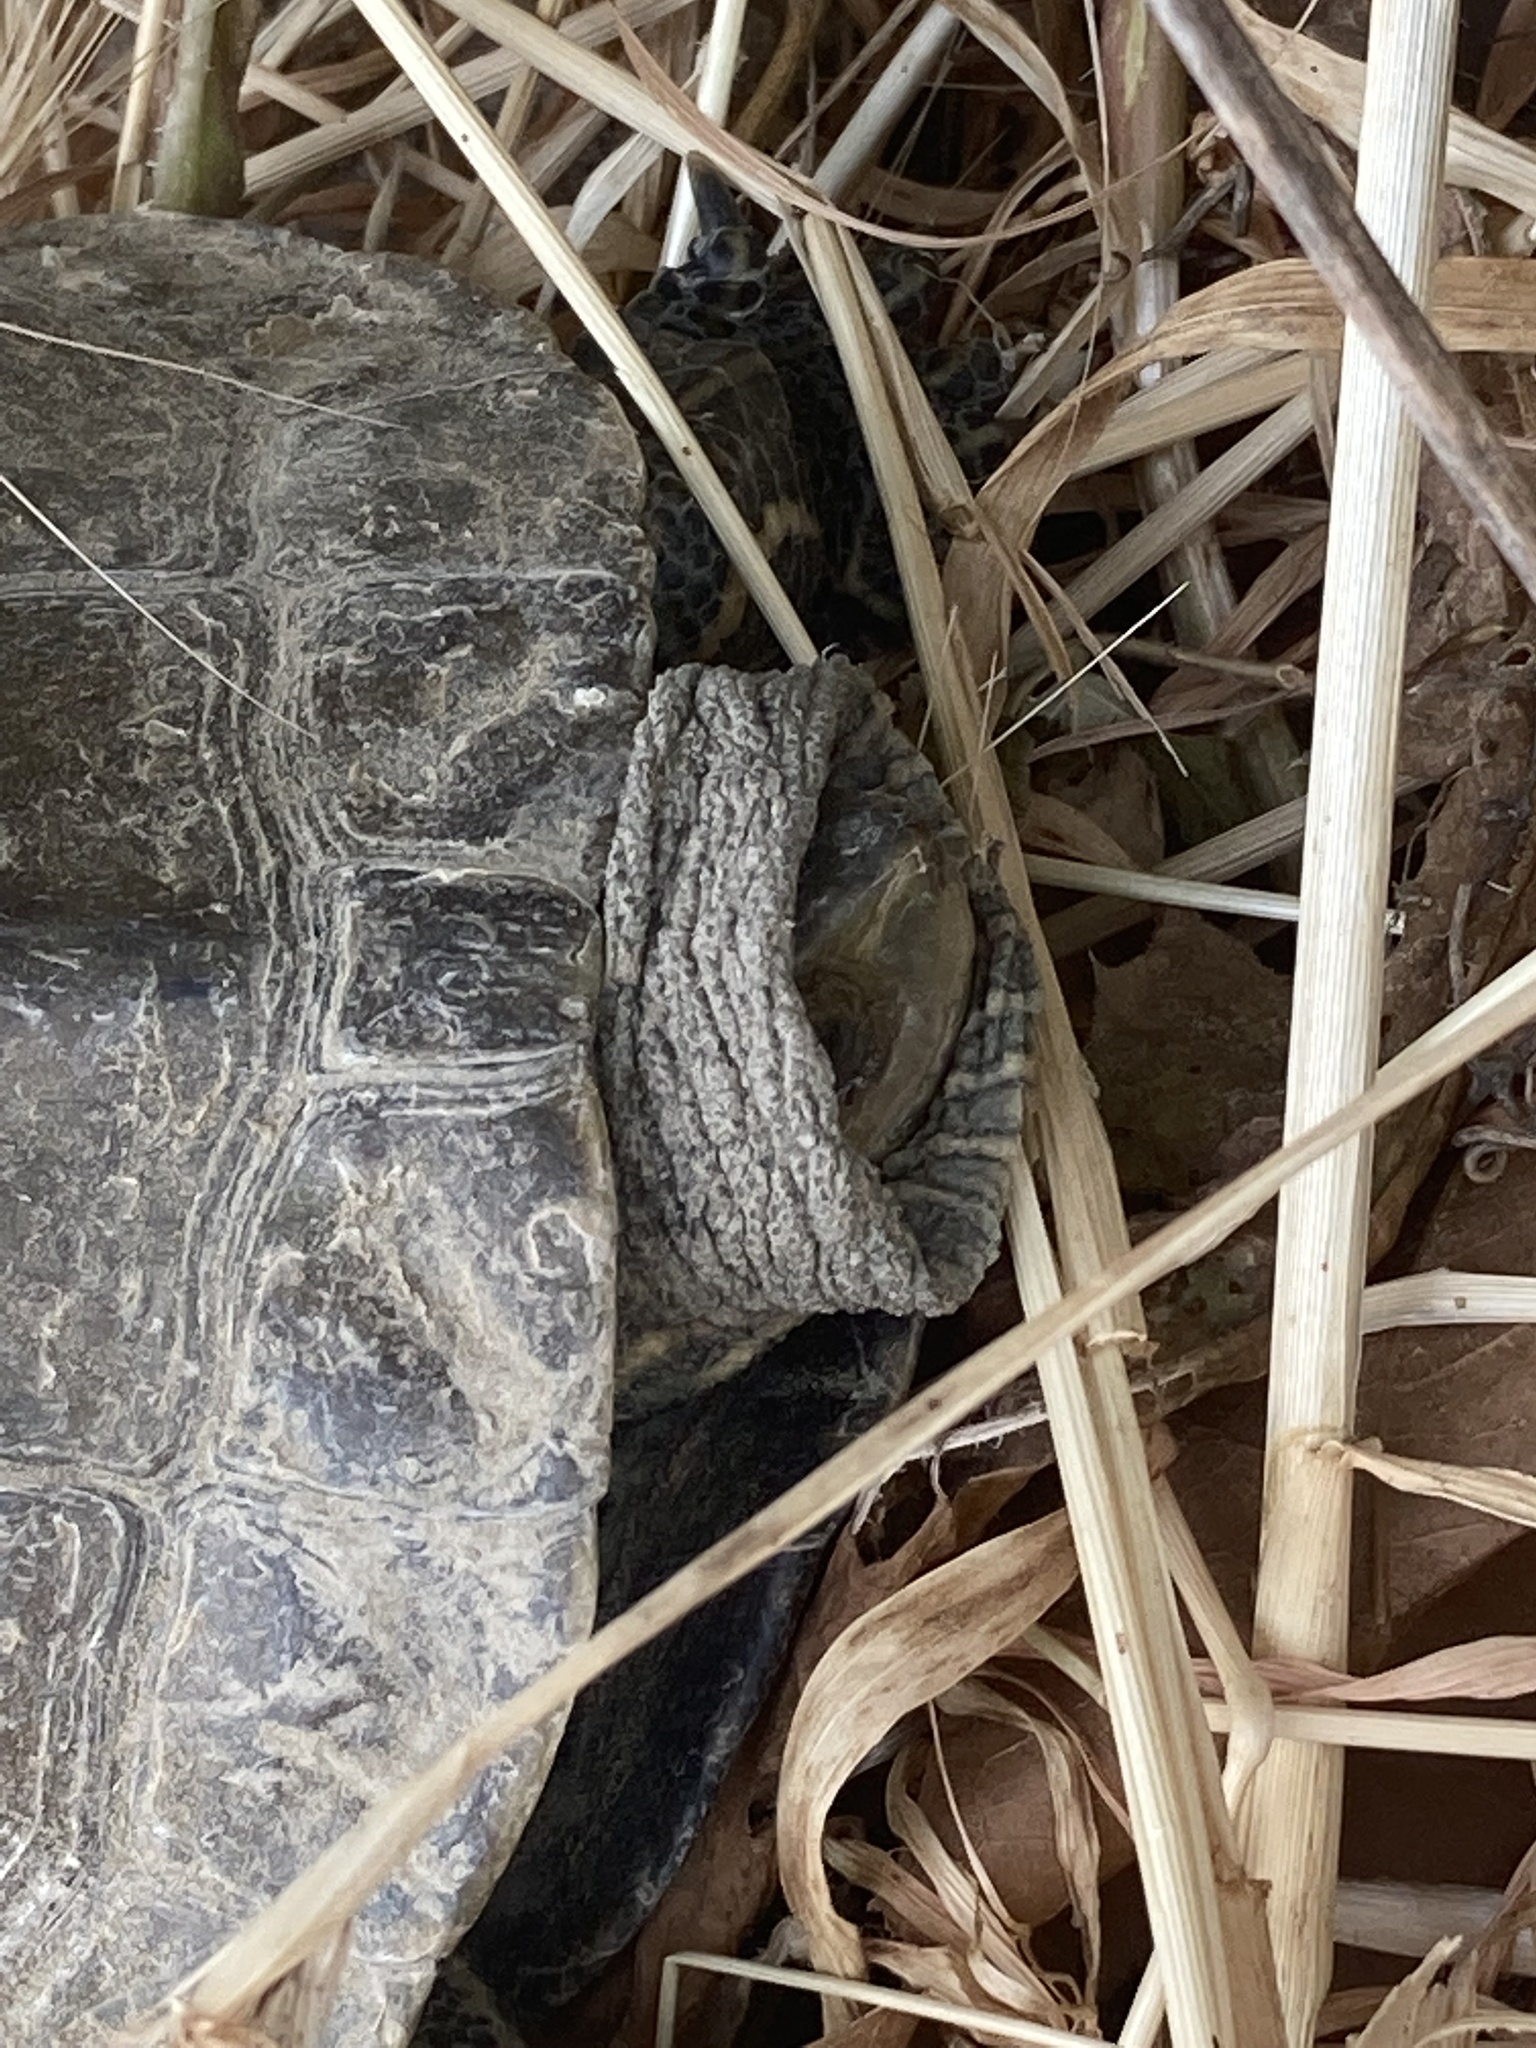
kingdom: Animalia
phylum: Chordata
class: Testudines
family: Geoemydidae
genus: Mauremys
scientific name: Mauremys rivulata
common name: Western caspian turtle
